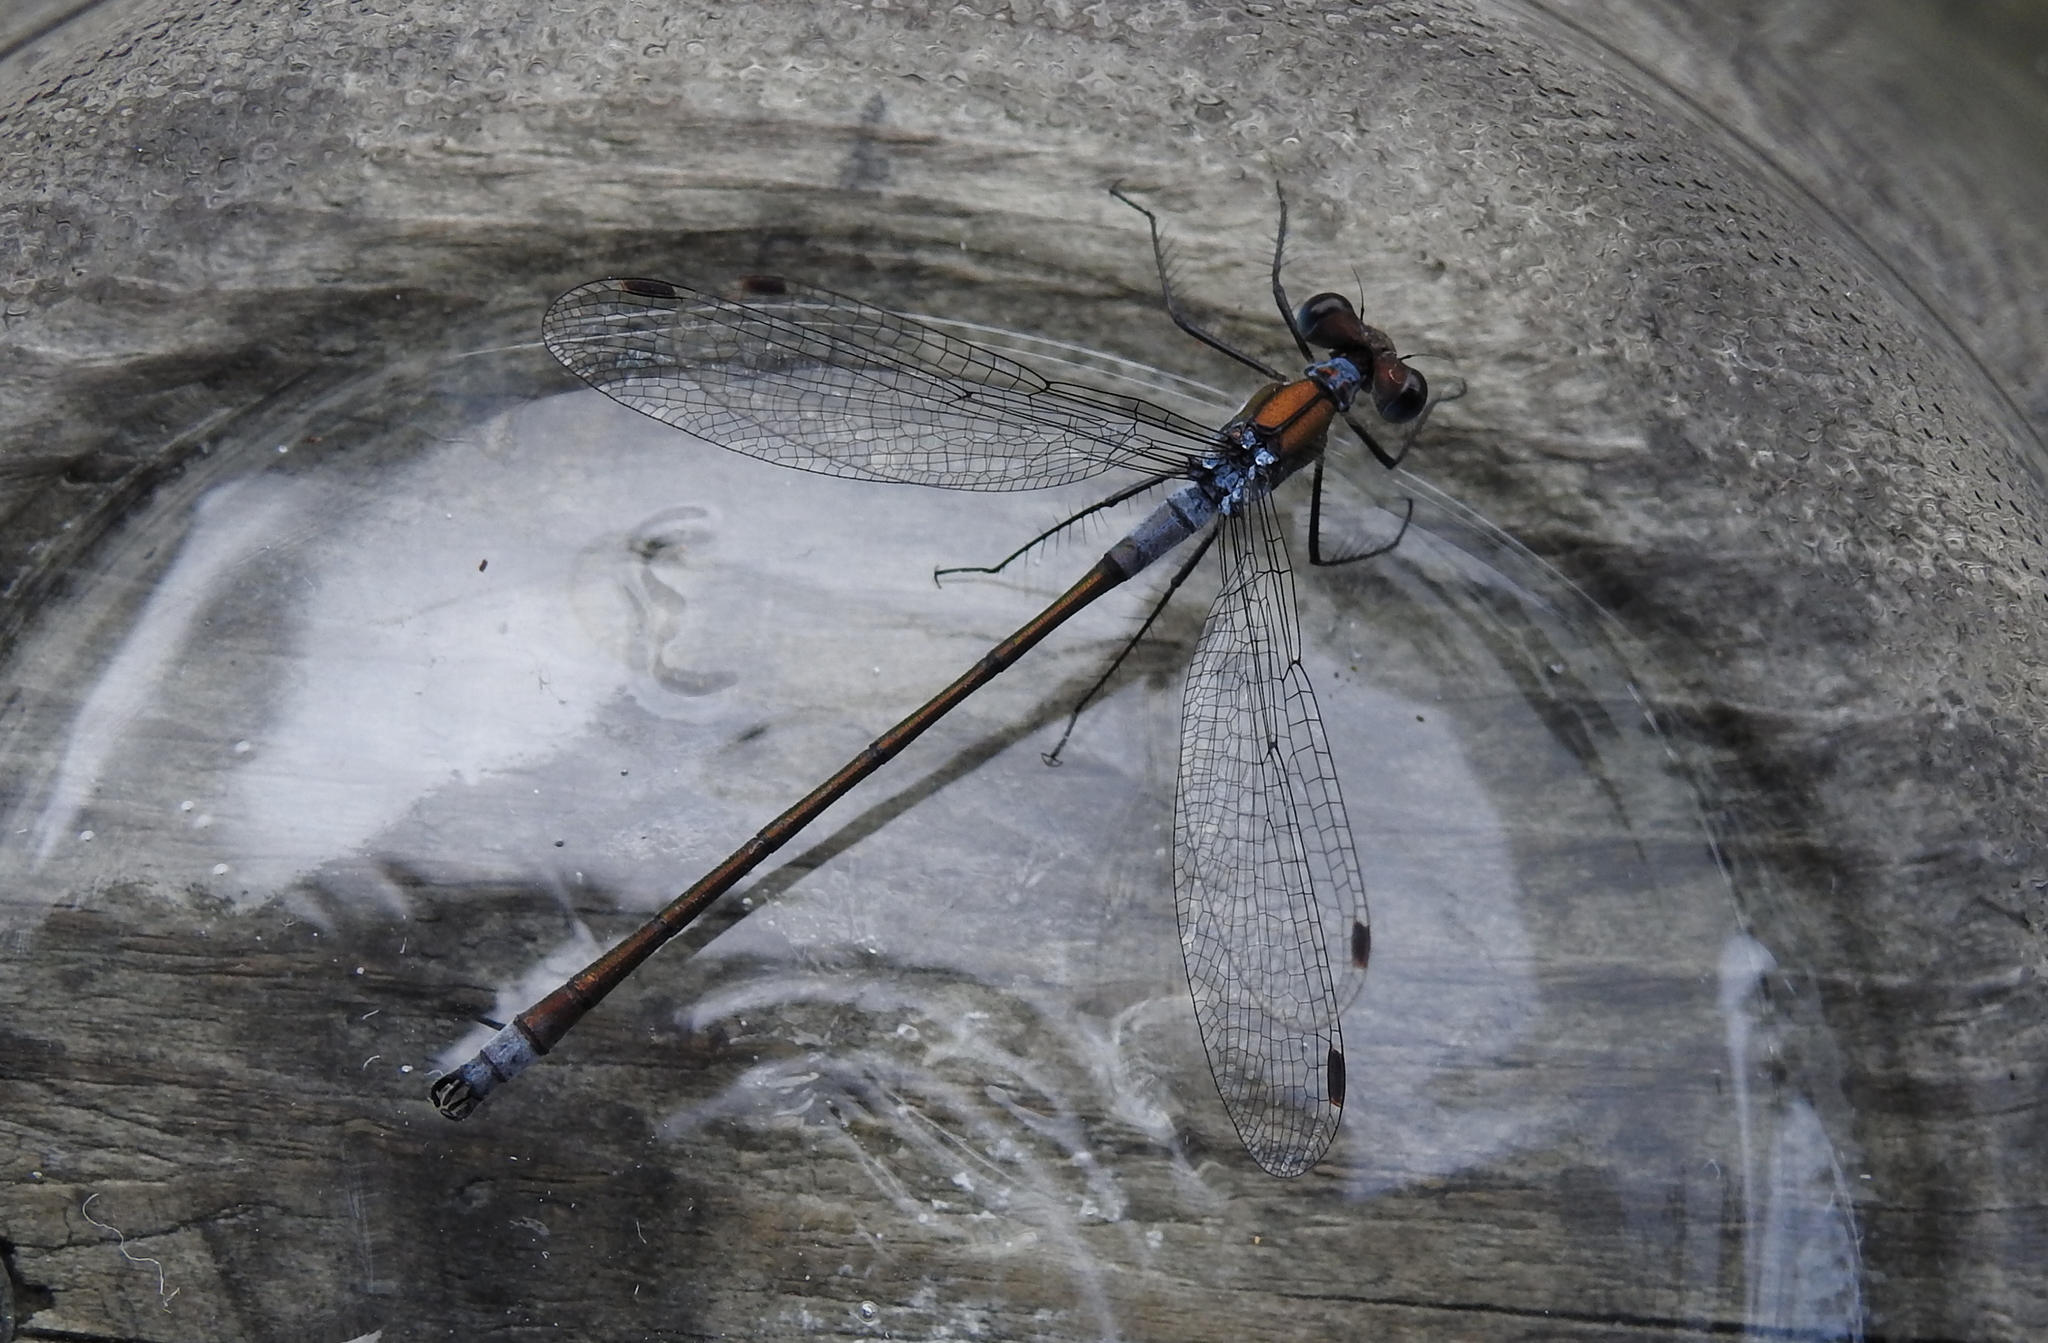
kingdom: Animalia
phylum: Arthropoda
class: Insecta
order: Odonata
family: Lestidae
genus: Lestes
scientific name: Lestes sponsa
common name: Common spreadwing
